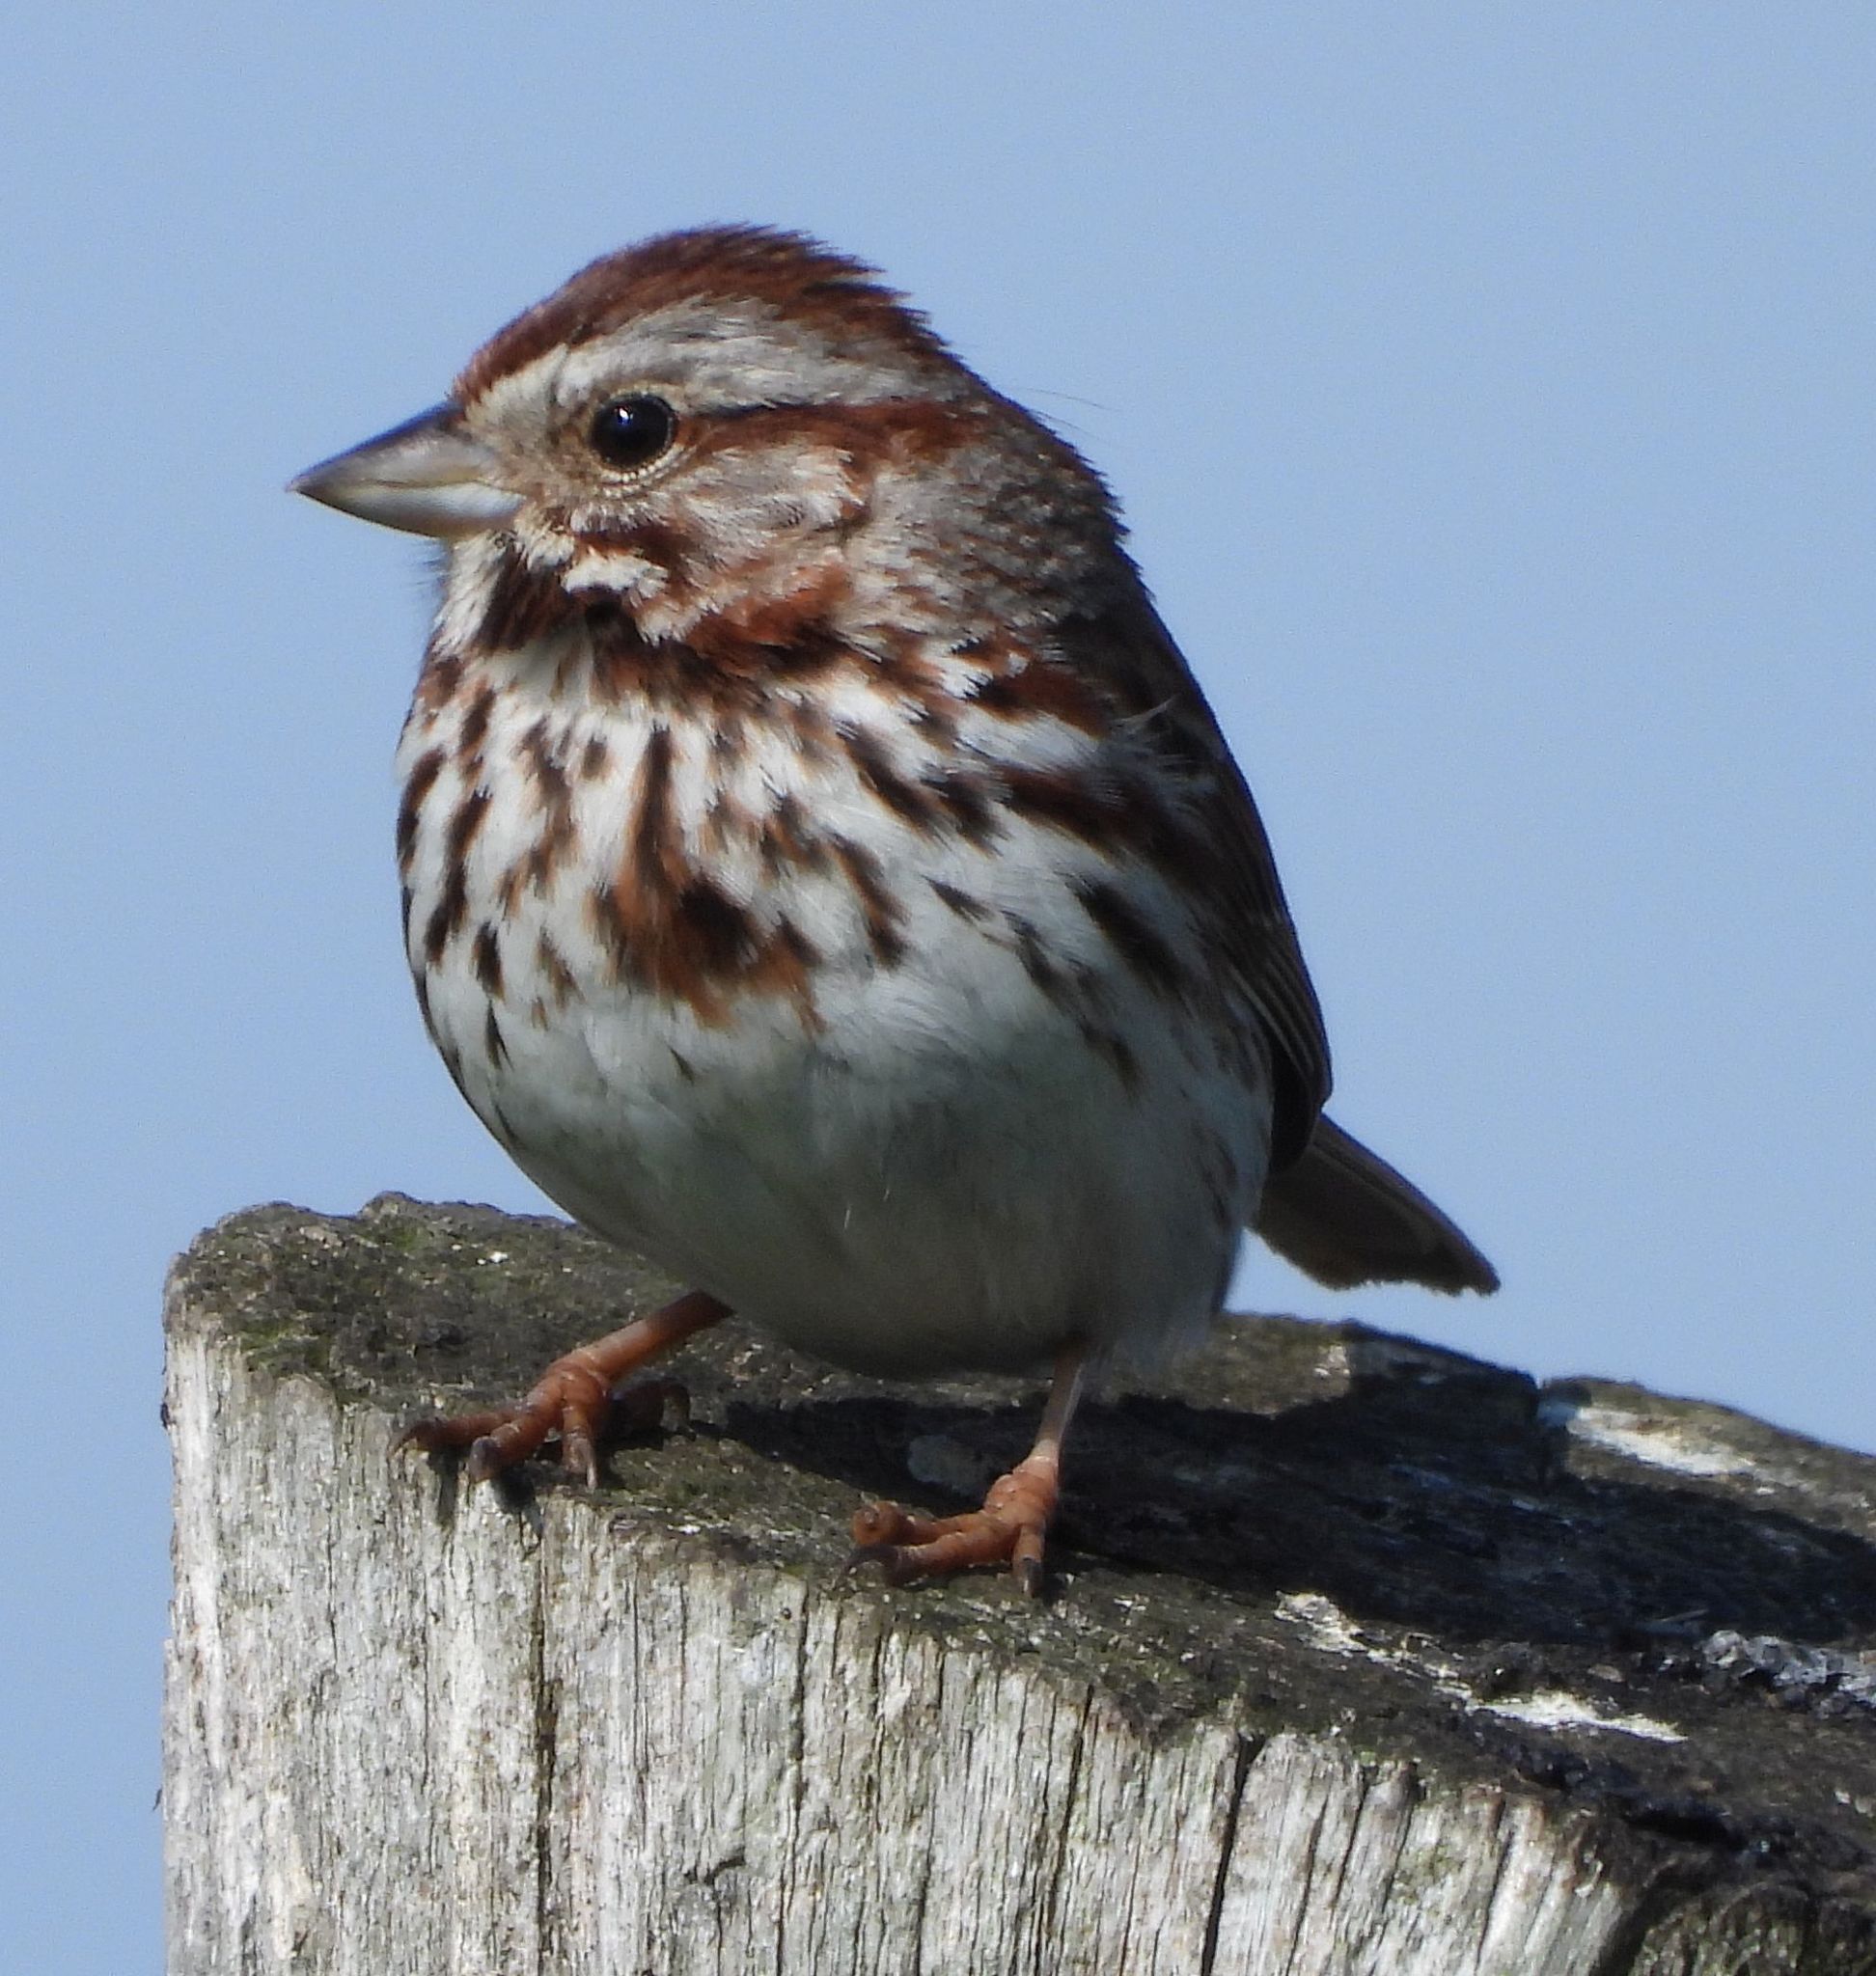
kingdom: Animalia
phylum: Chordata
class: Aves
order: Passeriformes
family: Passerellidae
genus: Melospiza
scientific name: Melospiza melodia
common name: Song sparrow
